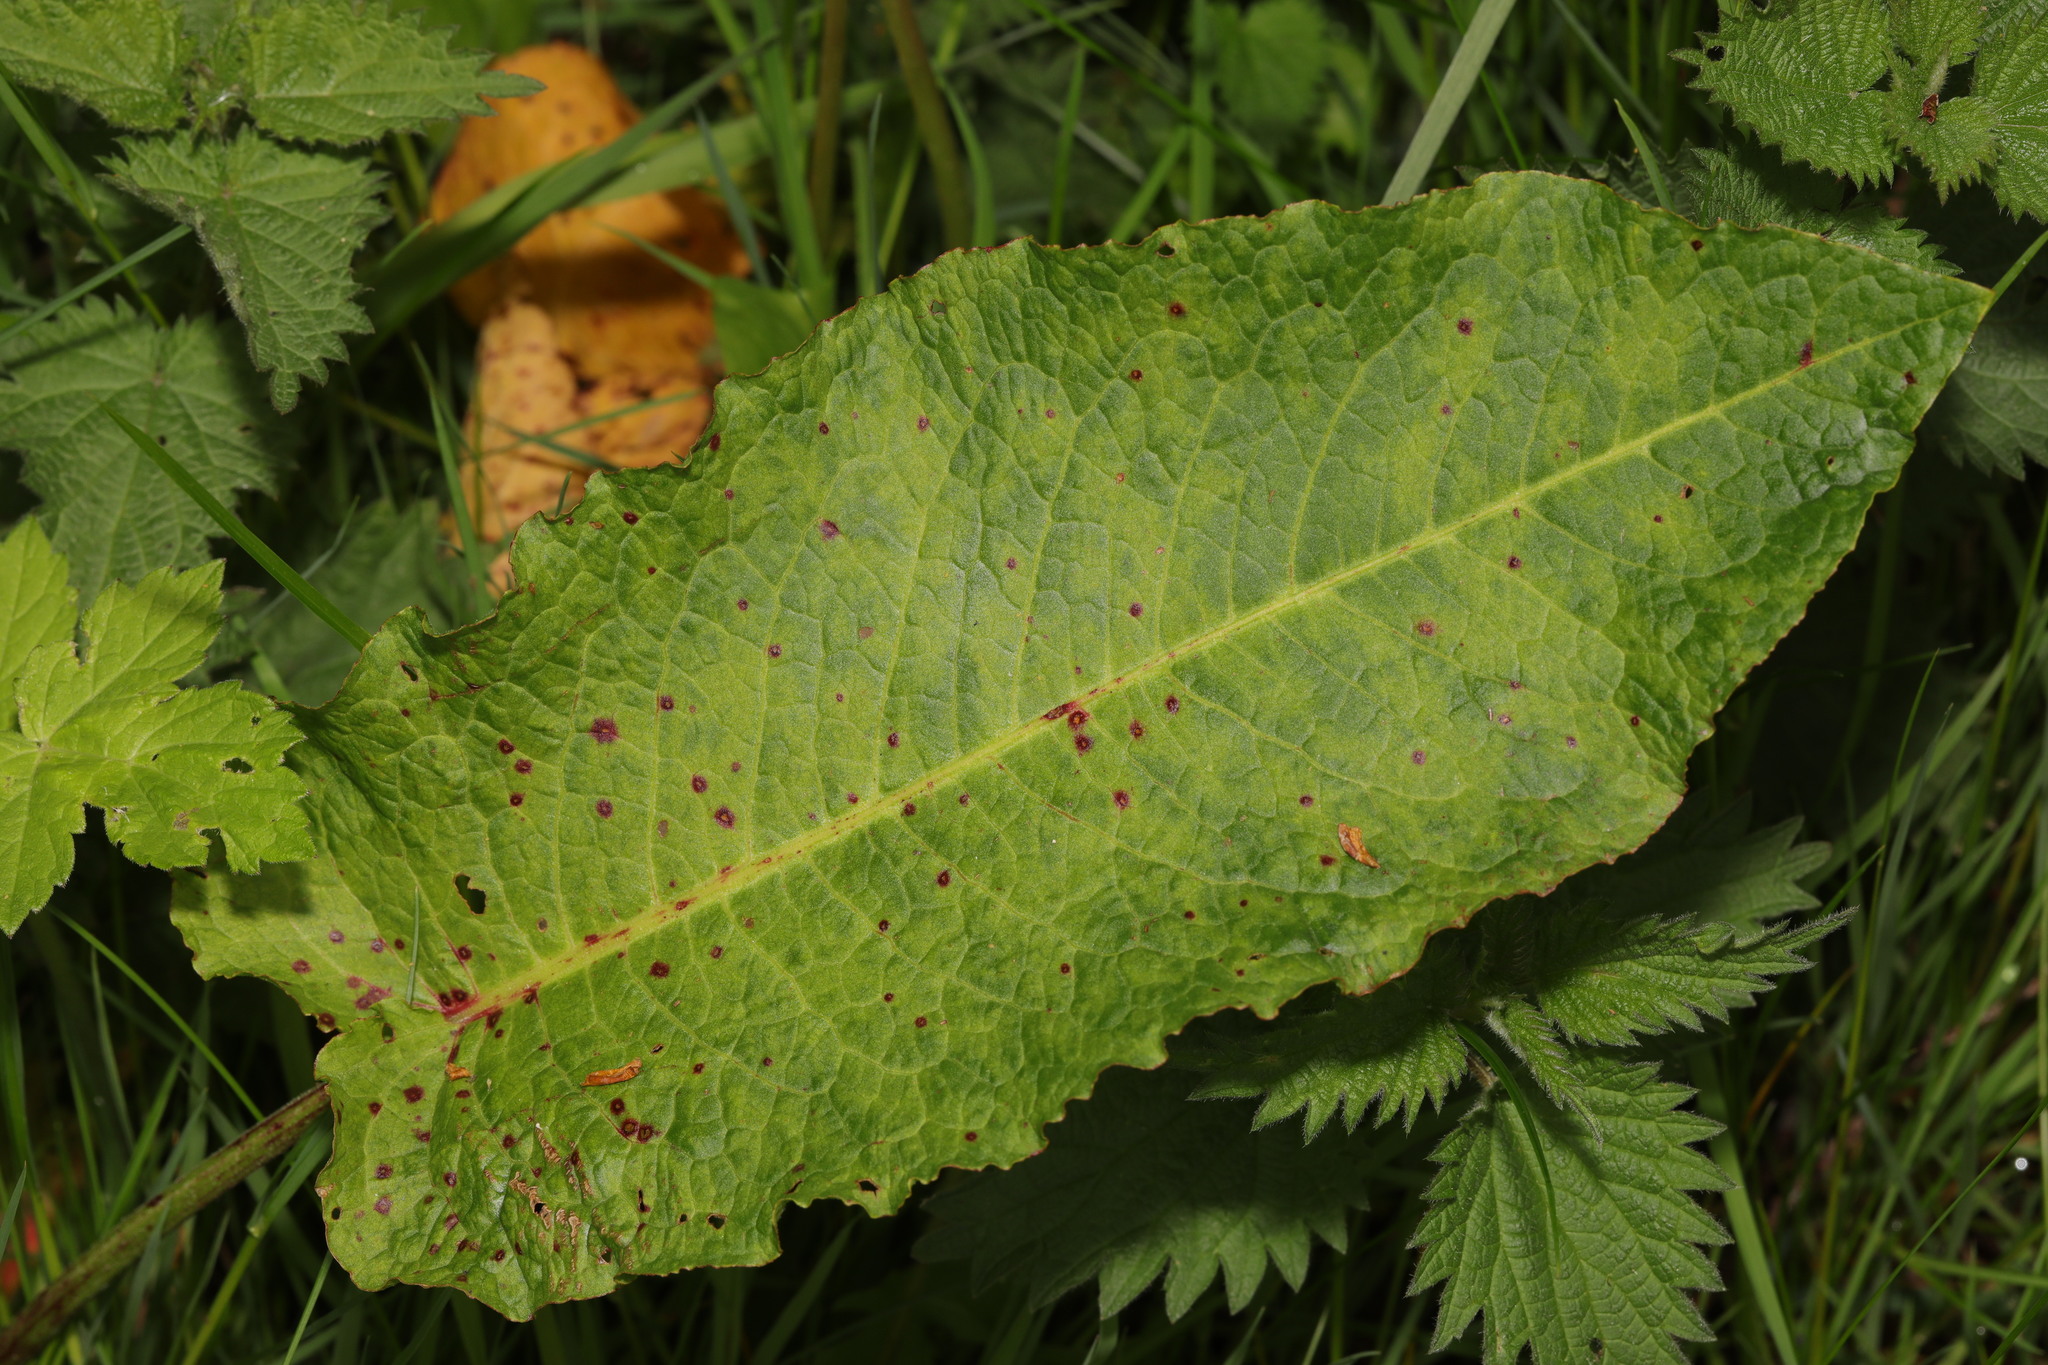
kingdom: Plantae
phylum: Tracheophyta
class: Magnoliopsida
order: Caryophyllales
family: Polygonaceae
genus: Rumex
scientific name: Rumex obtusifolius
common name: Bitter dock
